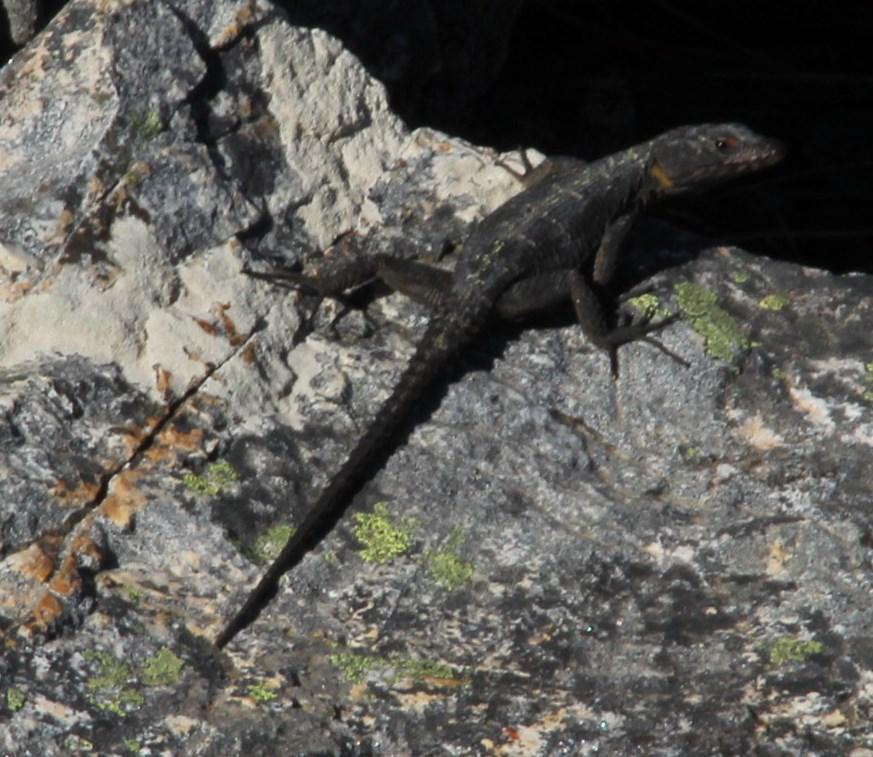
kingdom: Animalia
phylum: Chordata
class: Squamata
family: Cordylidae
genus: Hemicordylus
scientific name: Hemicordylus capensis
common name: Graceful crag lizard
